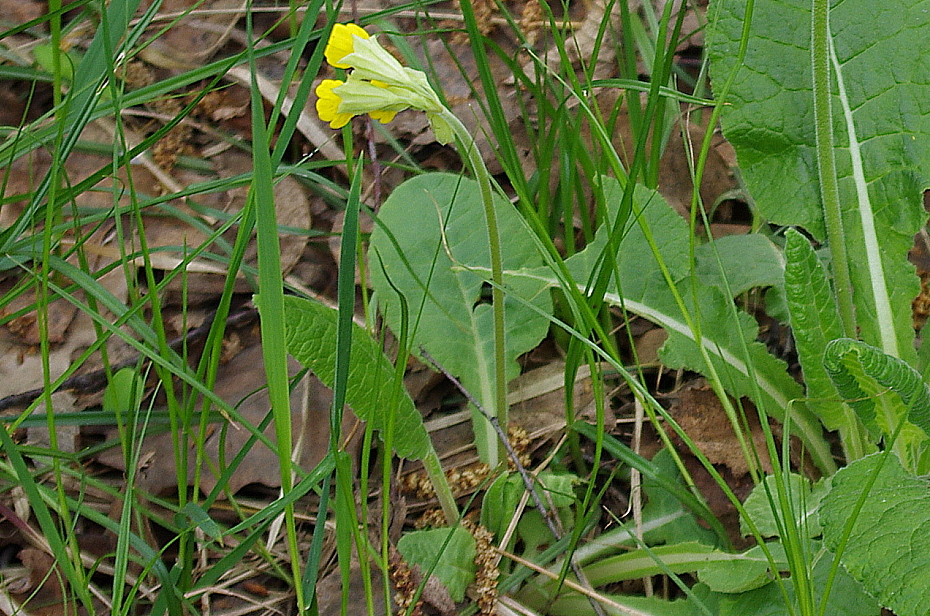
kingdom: Plantae
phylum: Tracheophyta
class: Magnoliopsida
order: Ericales
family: Primulaceae
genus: Primula
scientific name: Primula veris
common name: Cowslip
